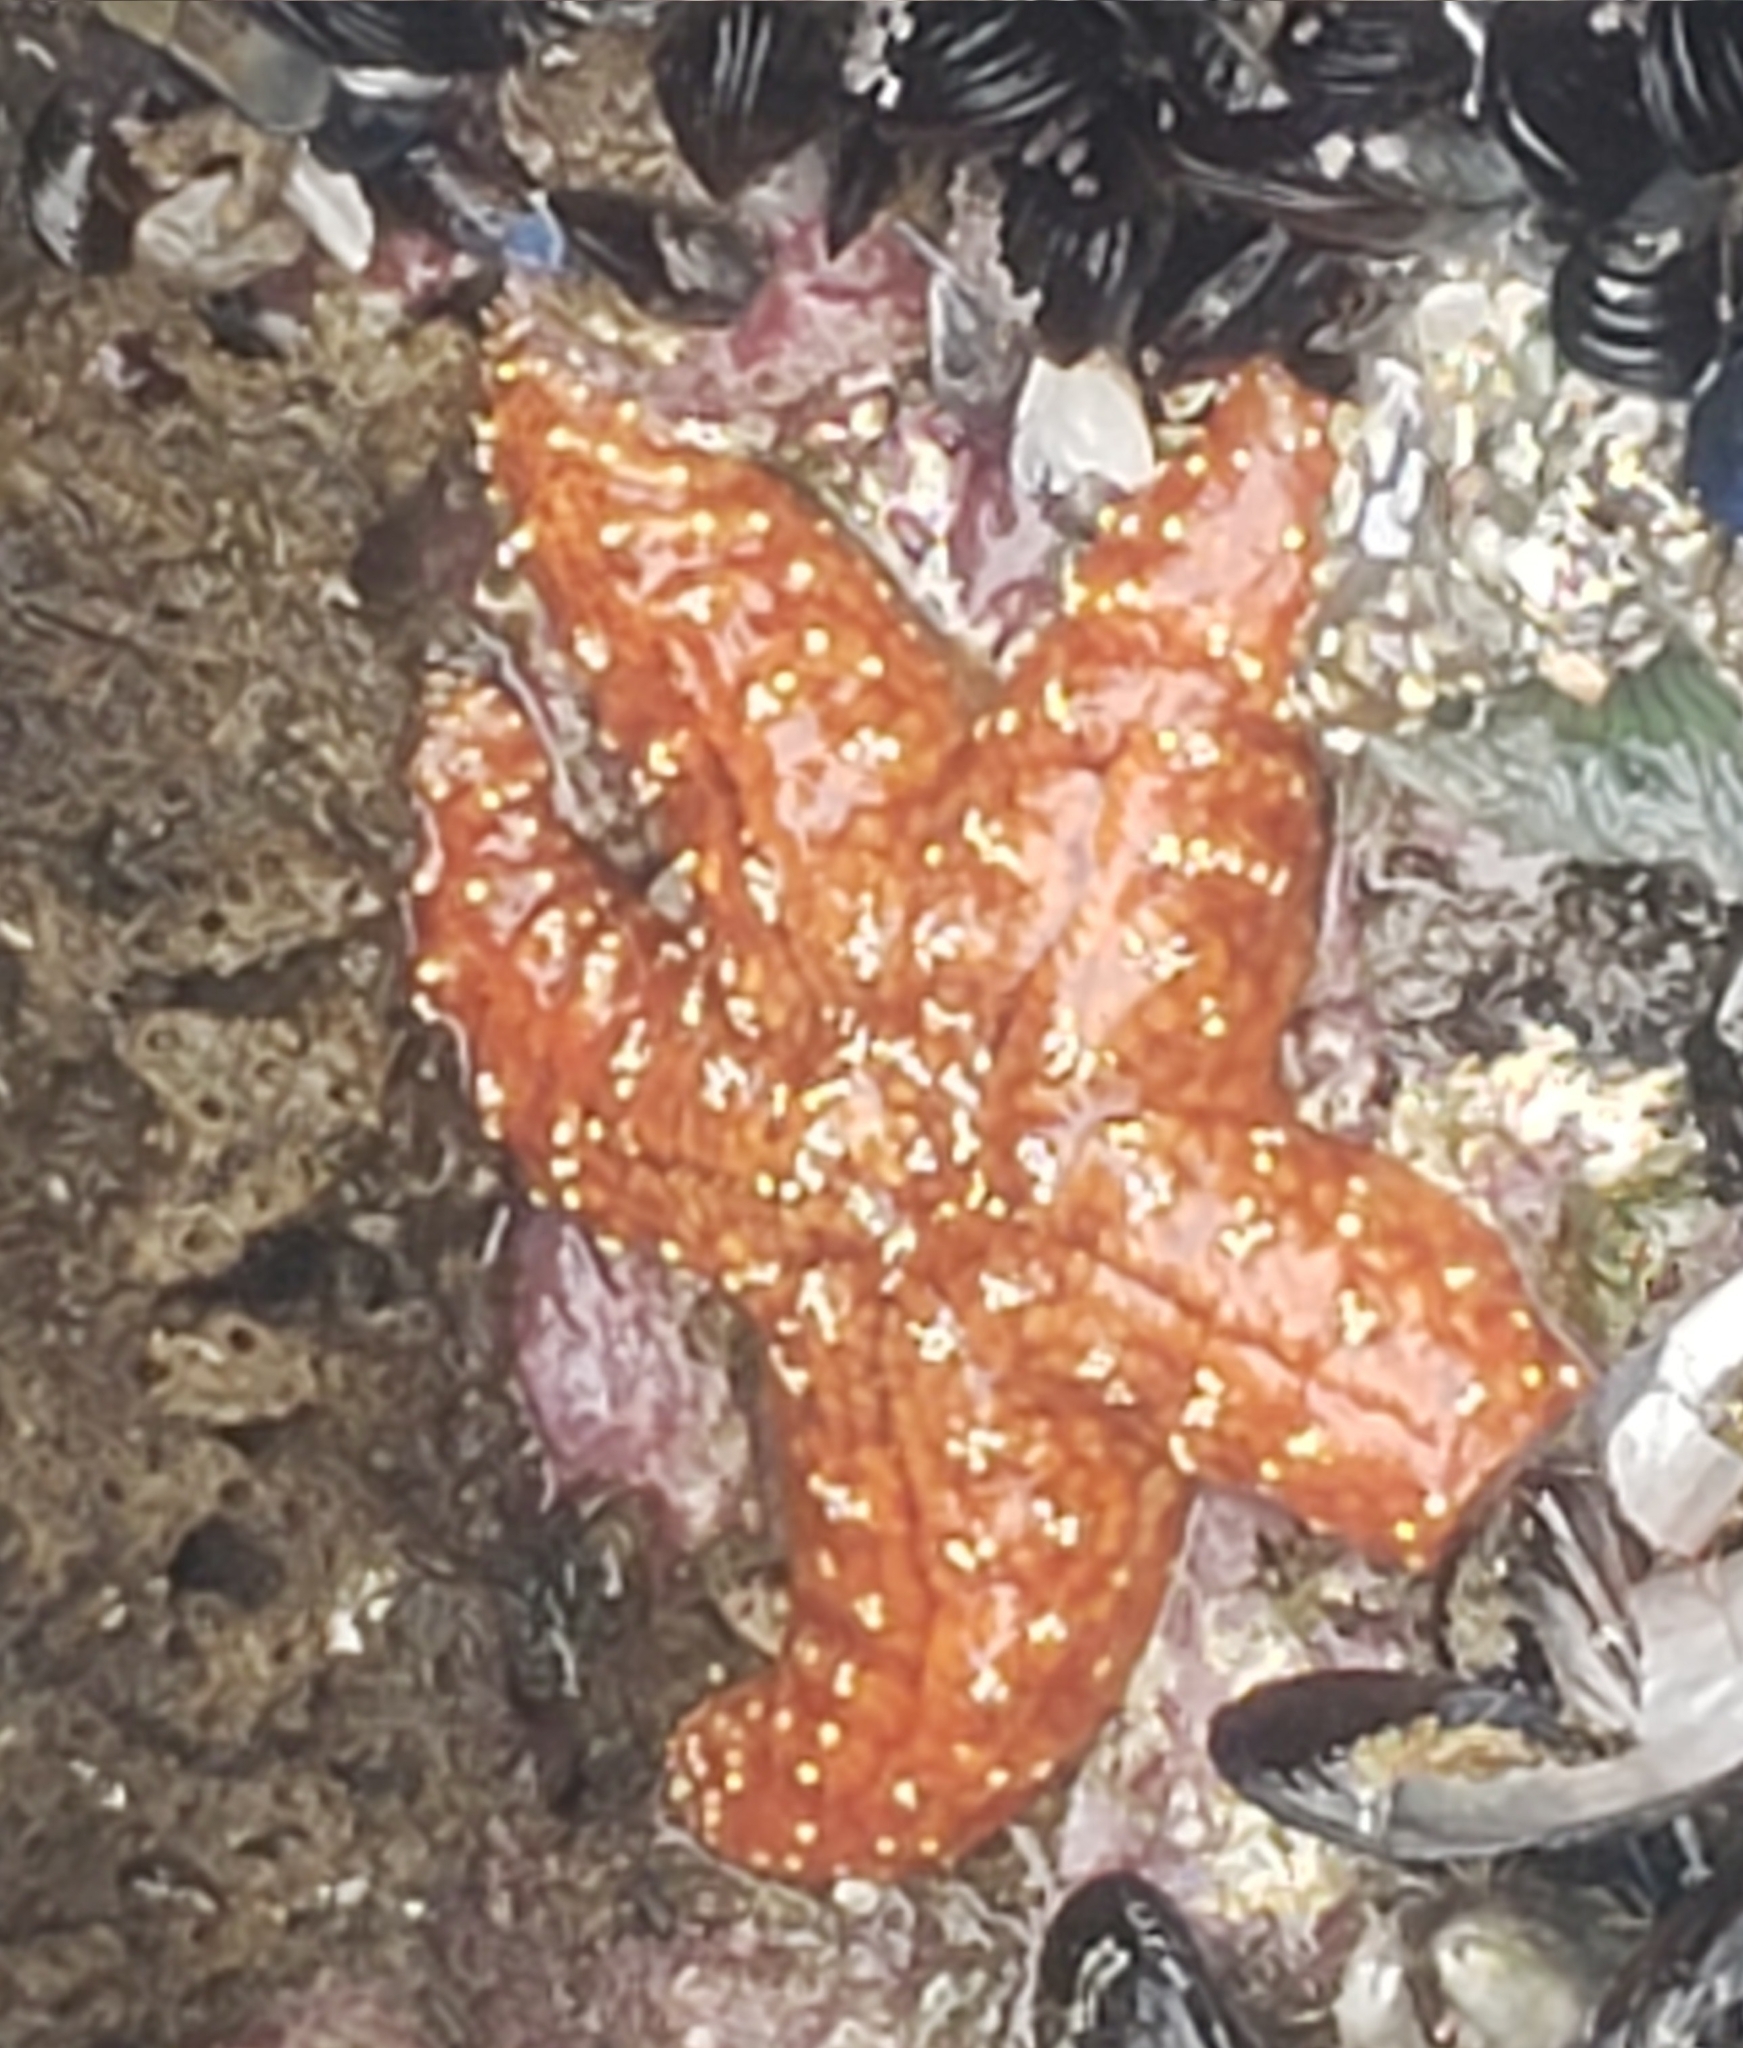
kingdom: Animalia
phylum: Echinodermata
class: Asteroidea
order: Forcipulatida
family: Asteriidae
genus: Pisaster
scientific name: Pisaster ochraceus
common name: Ochre stars
